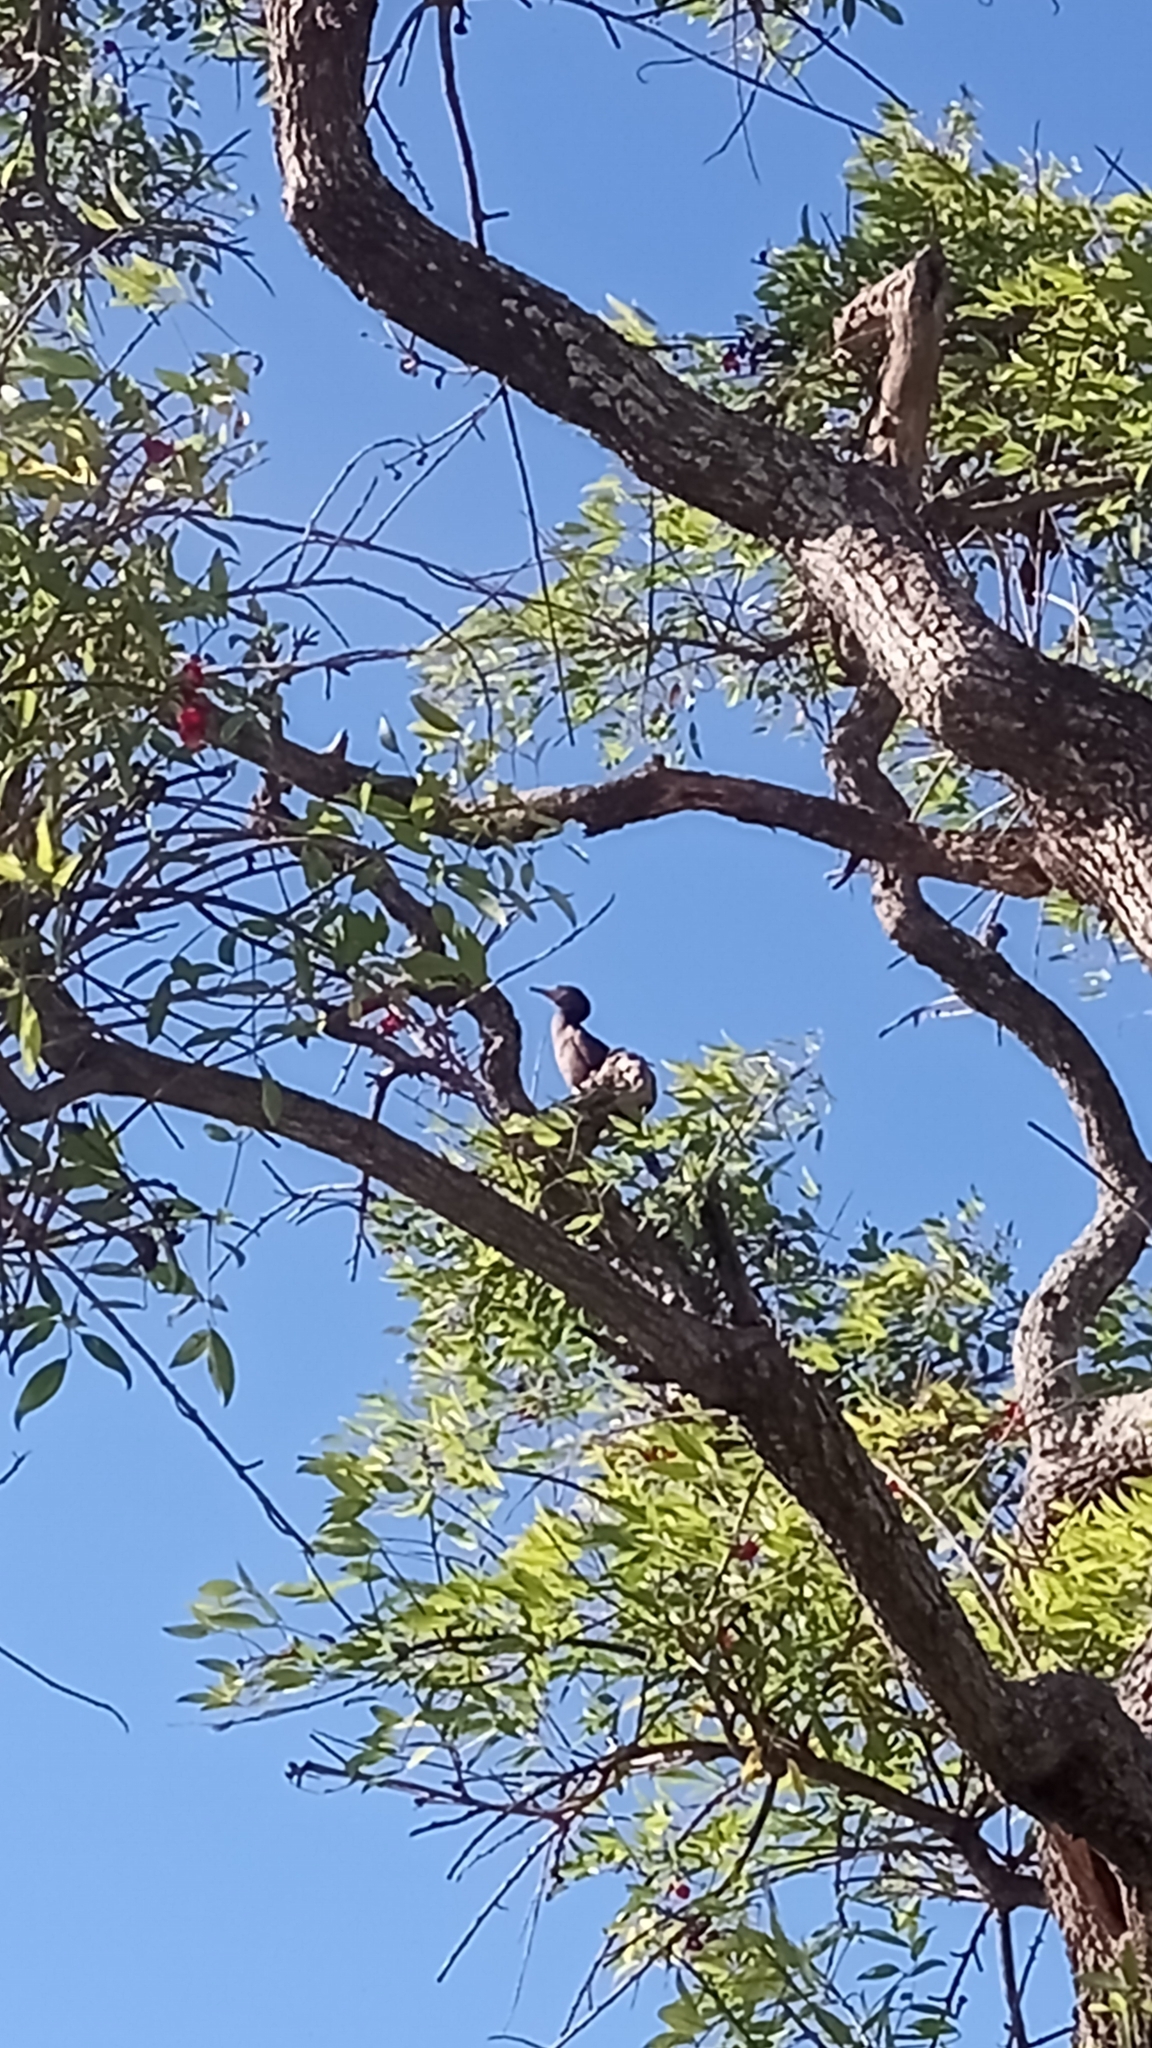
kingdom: Animalia
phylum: Chordata
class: Aves
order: Suliformes
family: Phalacrocoracidae
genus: Phalacrocorax
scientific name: Phalacrocorax brasilianus
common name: Neotropic cormorant
